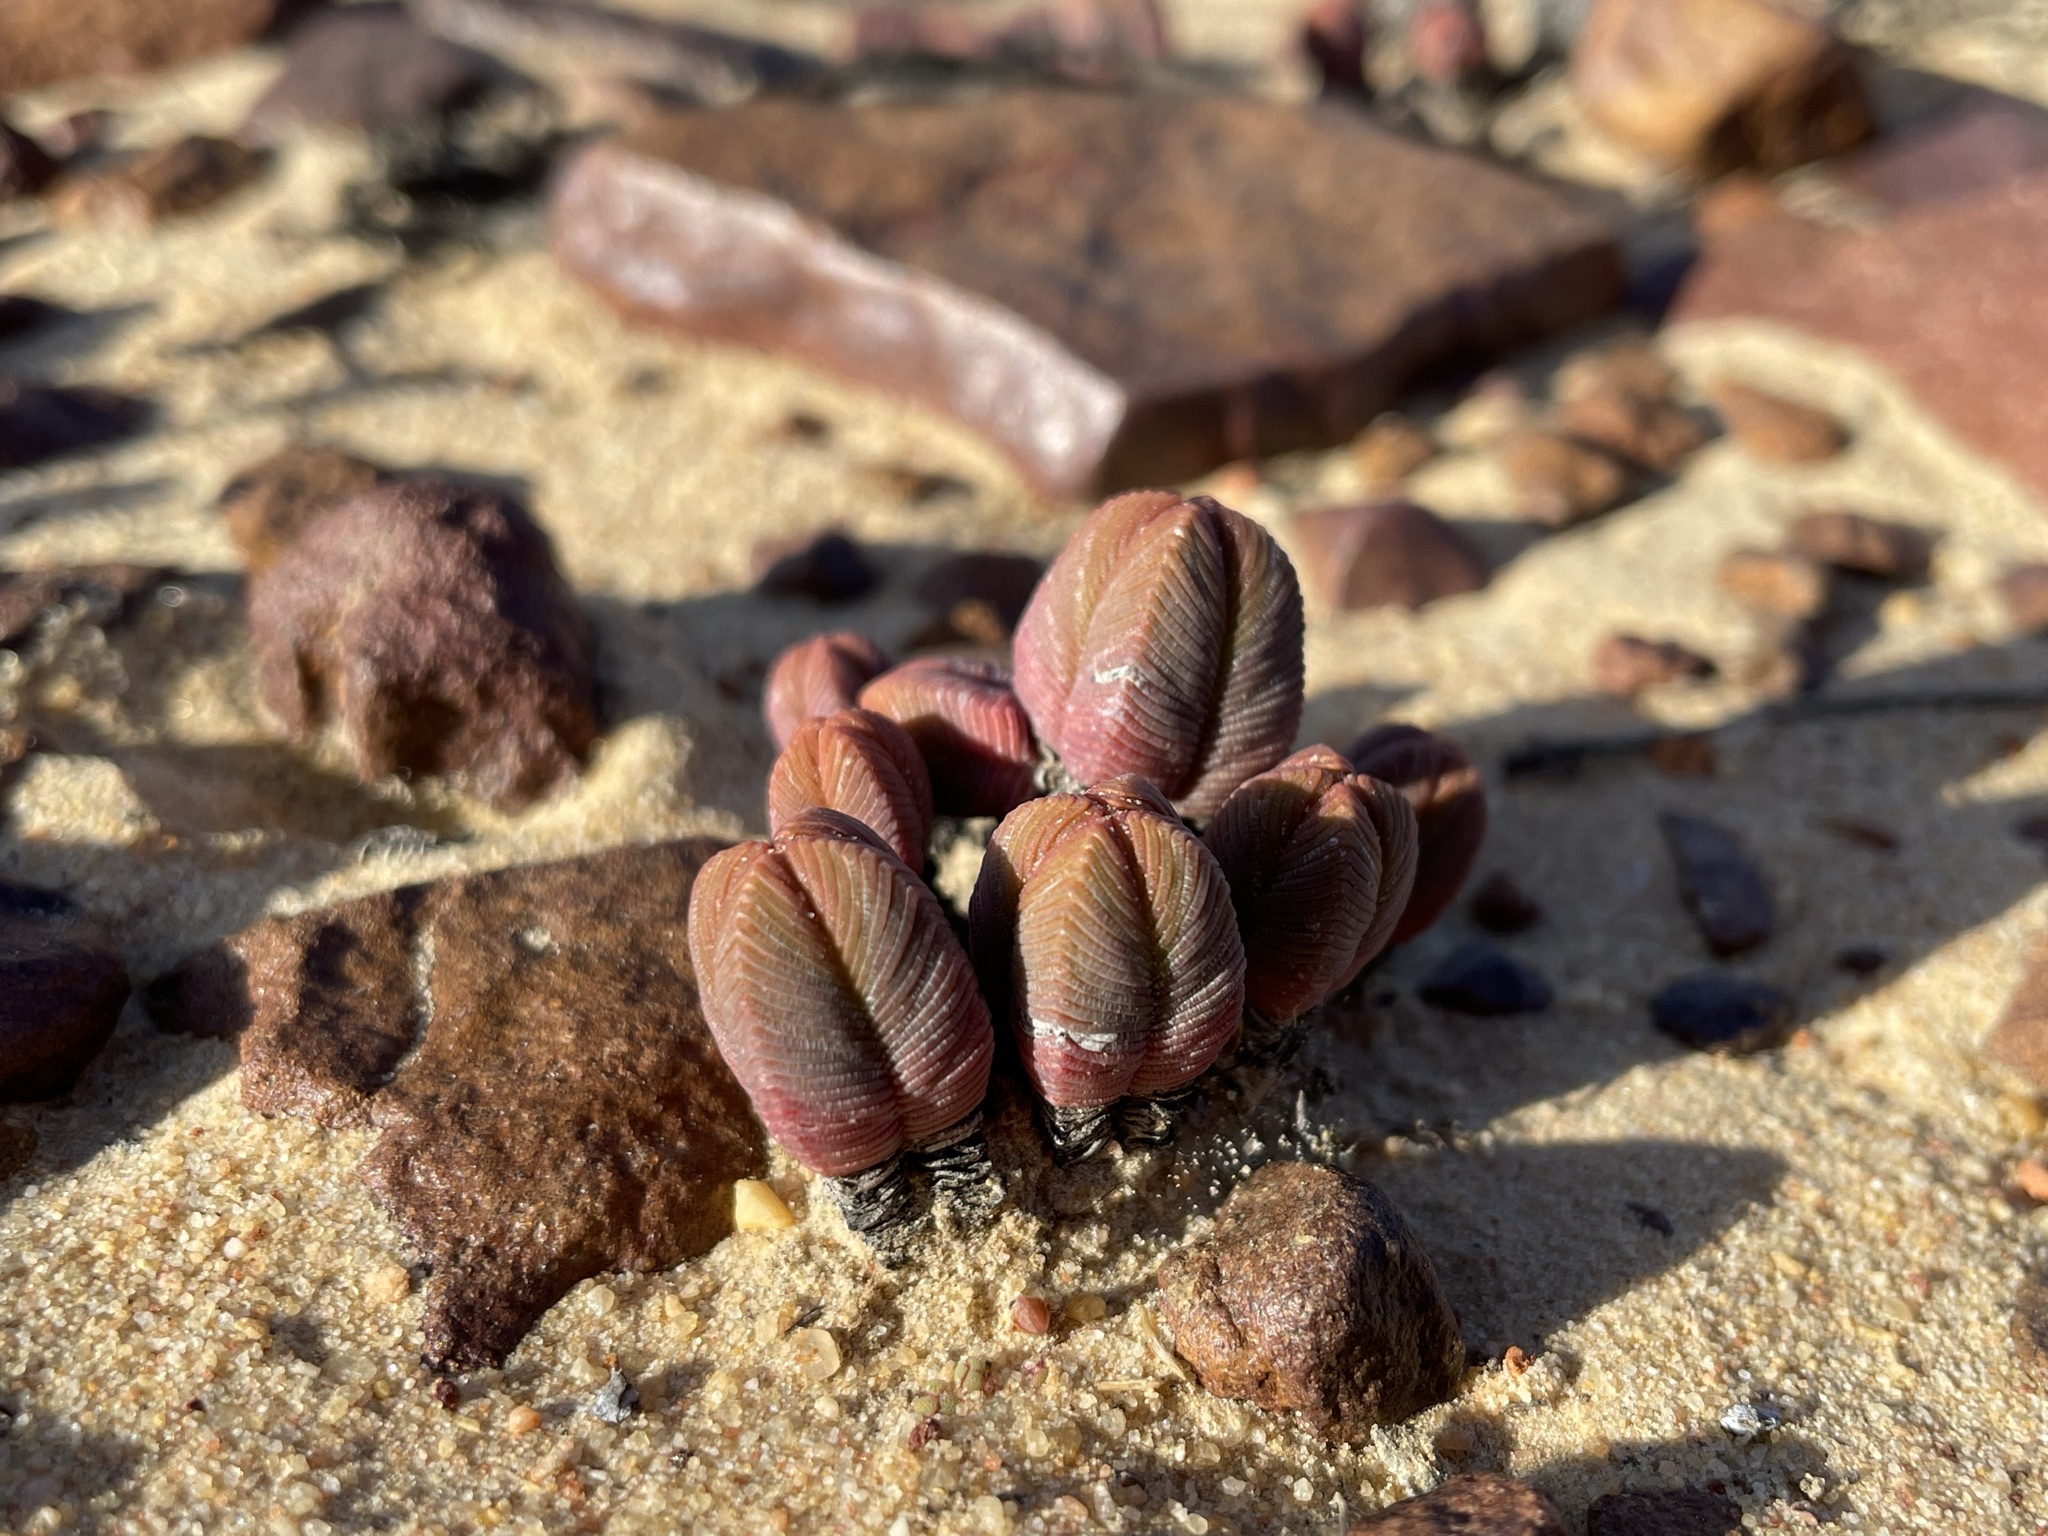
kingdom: Plantae
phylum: Tracheophyta
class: Magnoliopsida
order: Saxifragales
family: Crassulaceae
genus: Crassula
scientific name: Crassula pyramidalis
